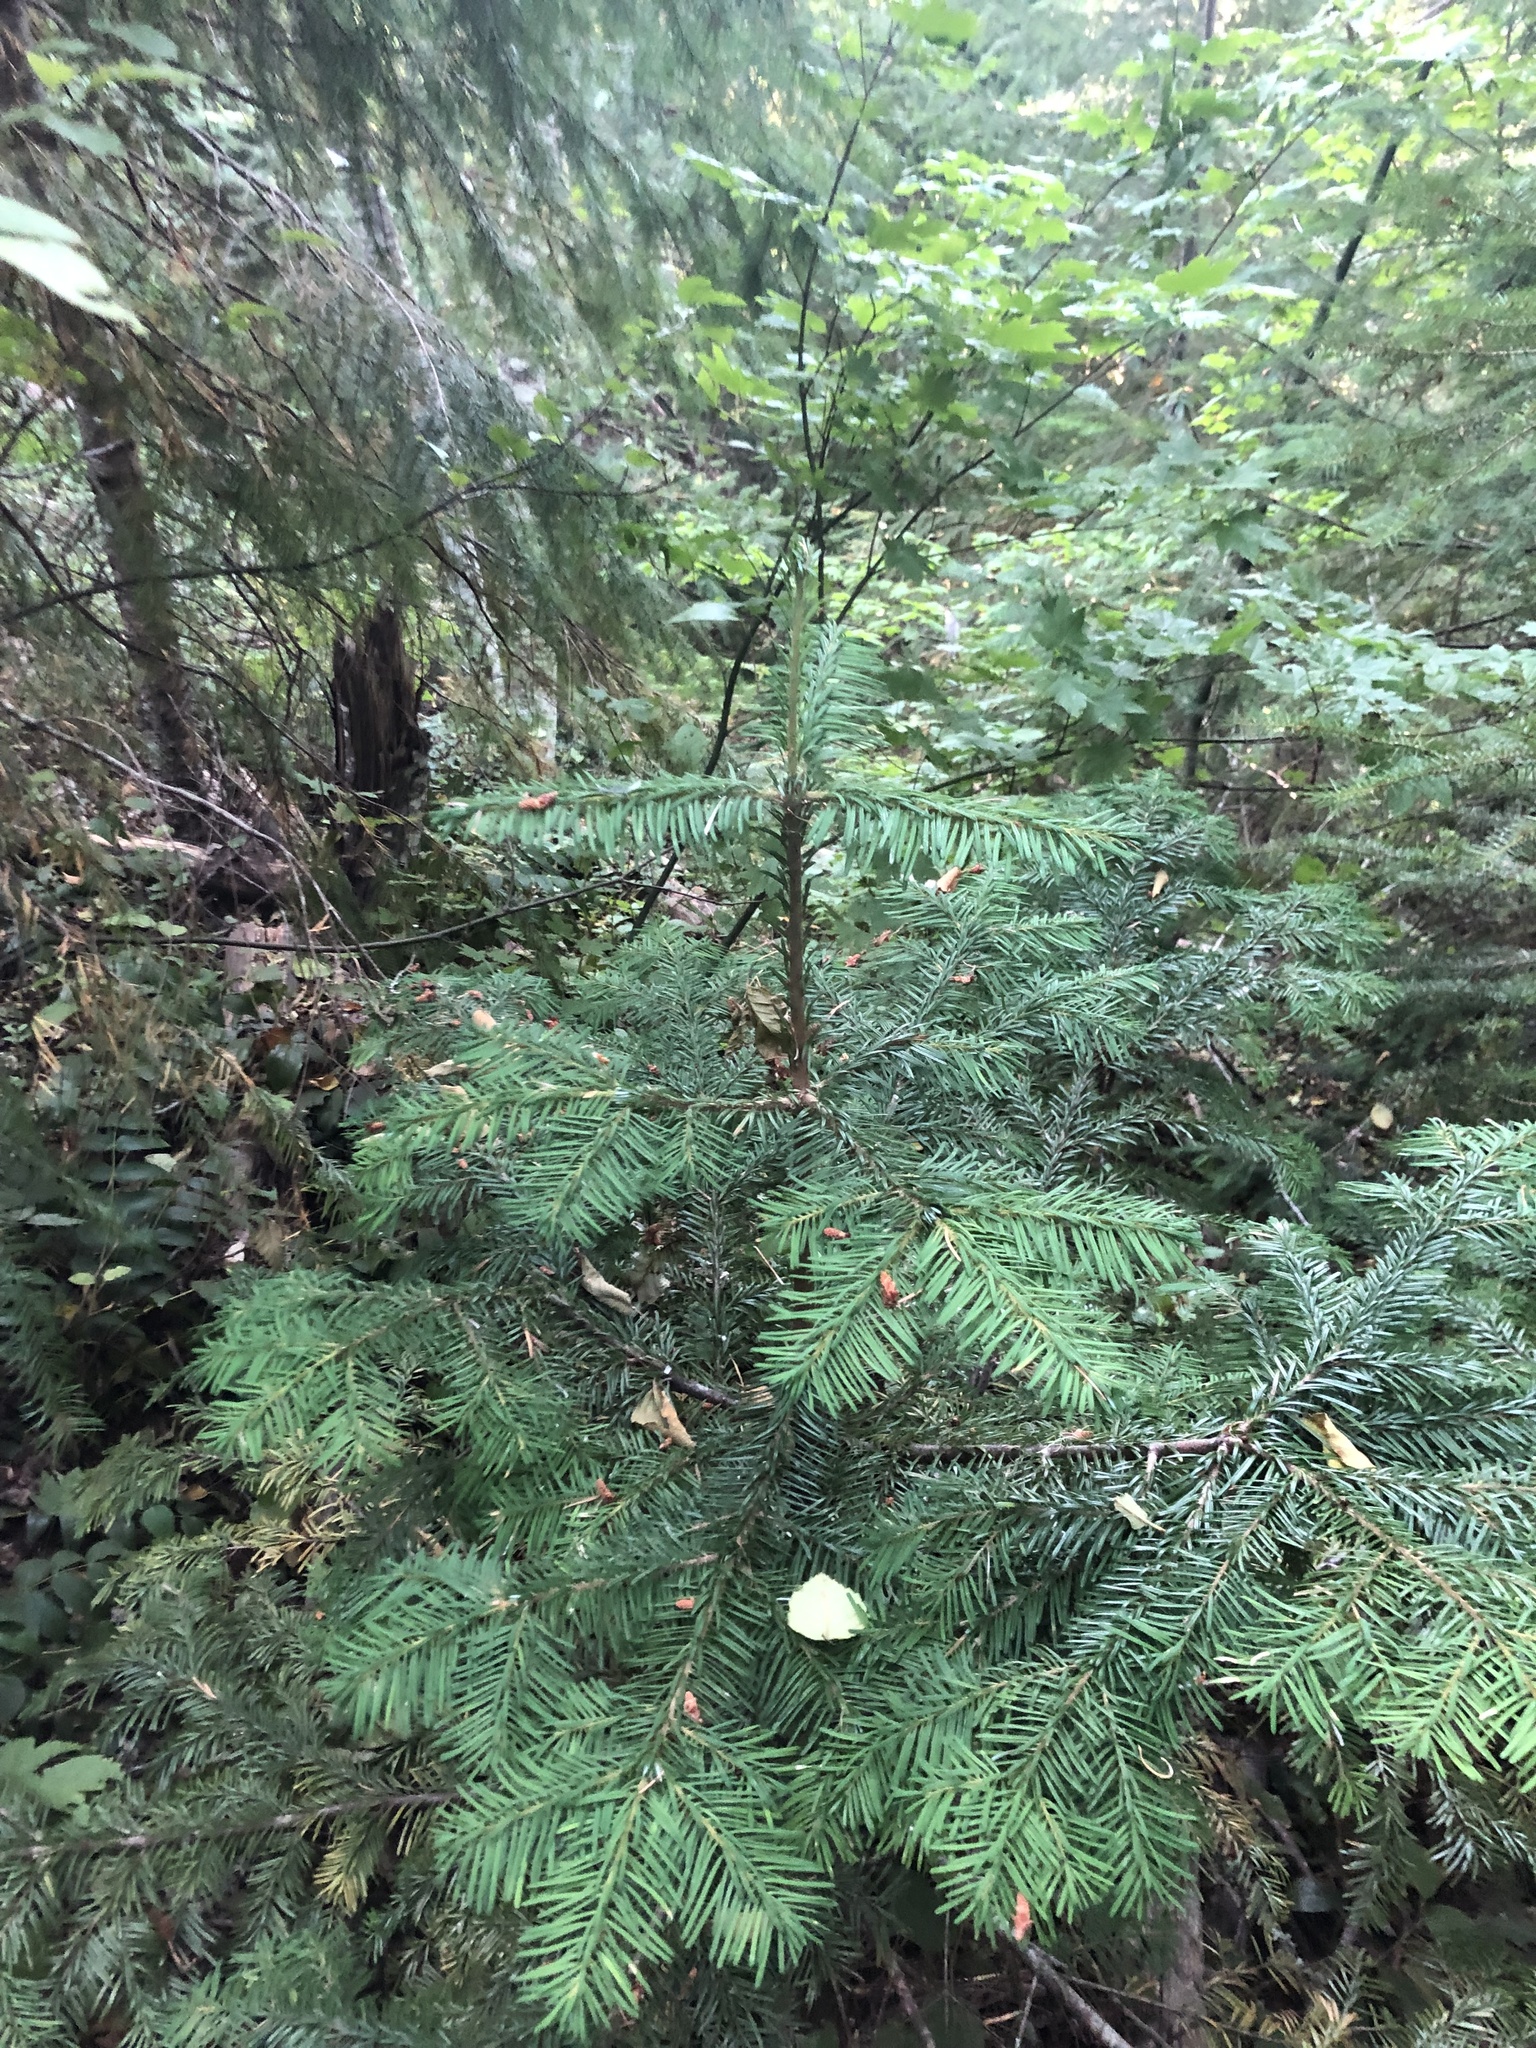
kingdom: Plantae
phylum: Tracheophyta
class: Pinopsida
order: Pinales
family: Pinaceae
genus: Abies
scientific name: Abies amabilis
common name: Pacific silver fir
